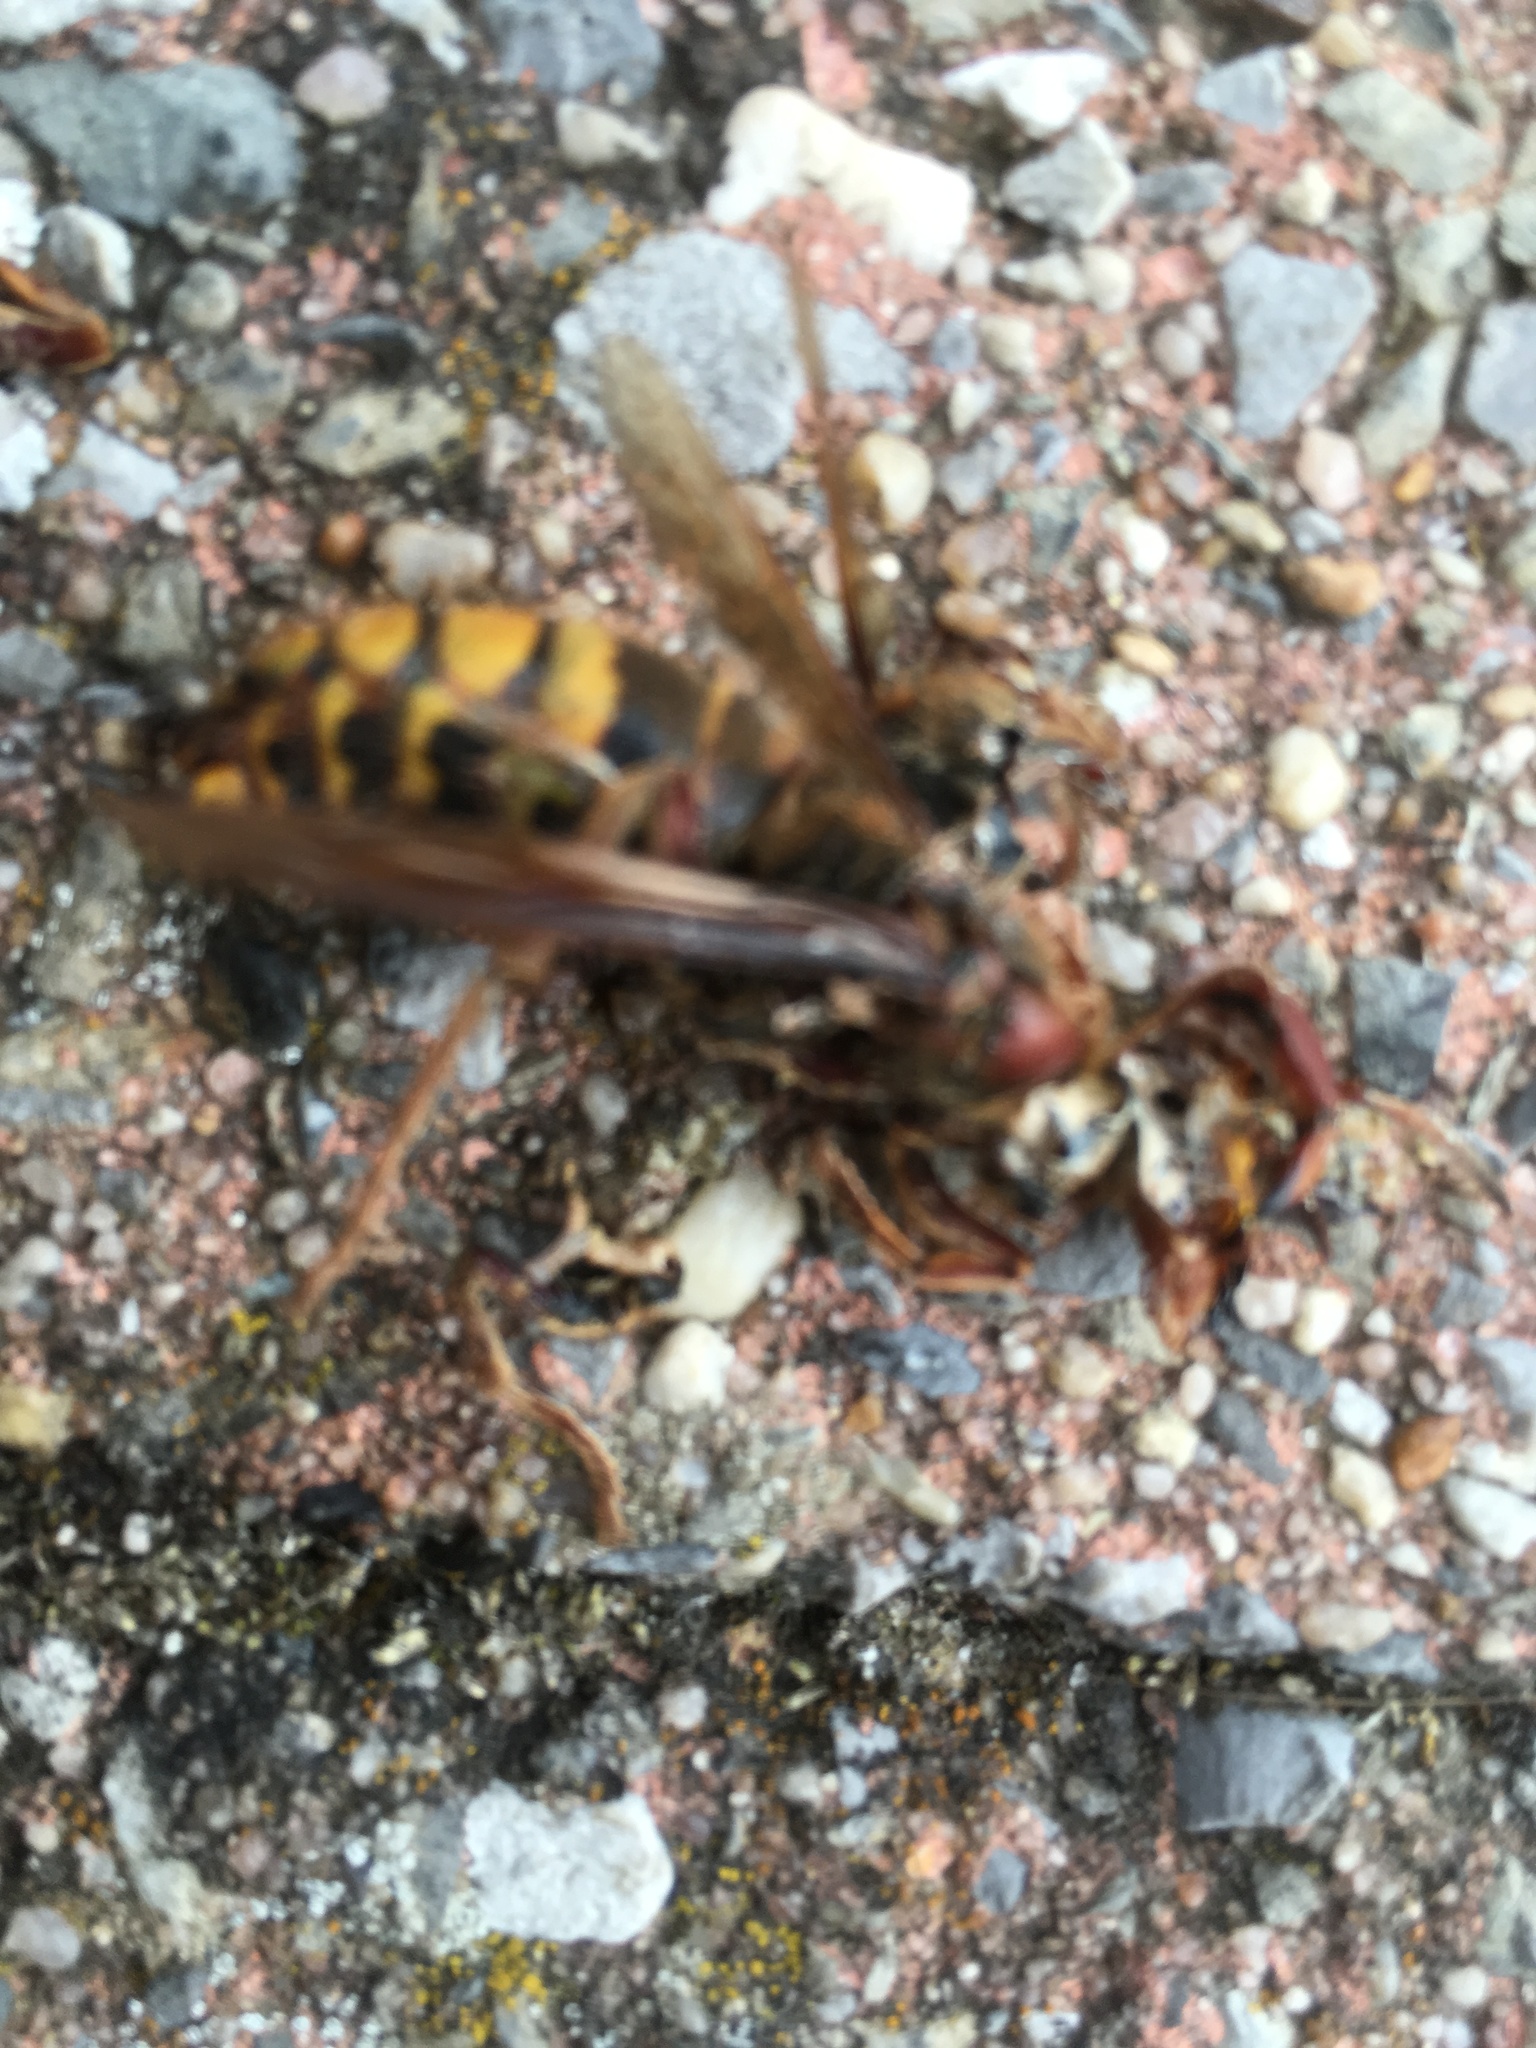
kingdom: Animalia
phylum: Arthropoda
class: Insecta
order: Hymenoptera
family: Vespidae
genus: Vespa
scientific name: Vespa crabro
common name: Hornet
